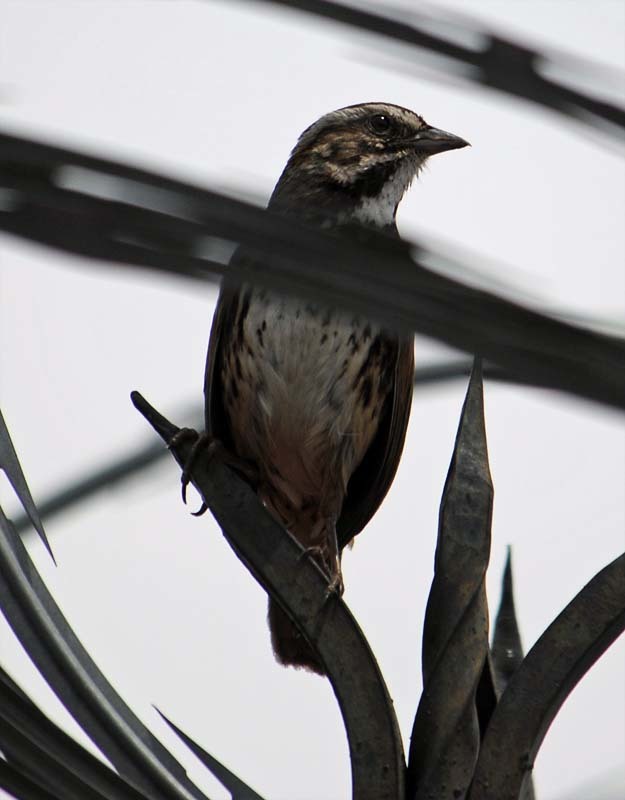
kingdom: Animalia
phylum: Chordata
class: Aves
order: Passeriformes
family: Passerellidae
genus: Melospiza
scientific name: Melospiza melodia
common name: Song sparrow
